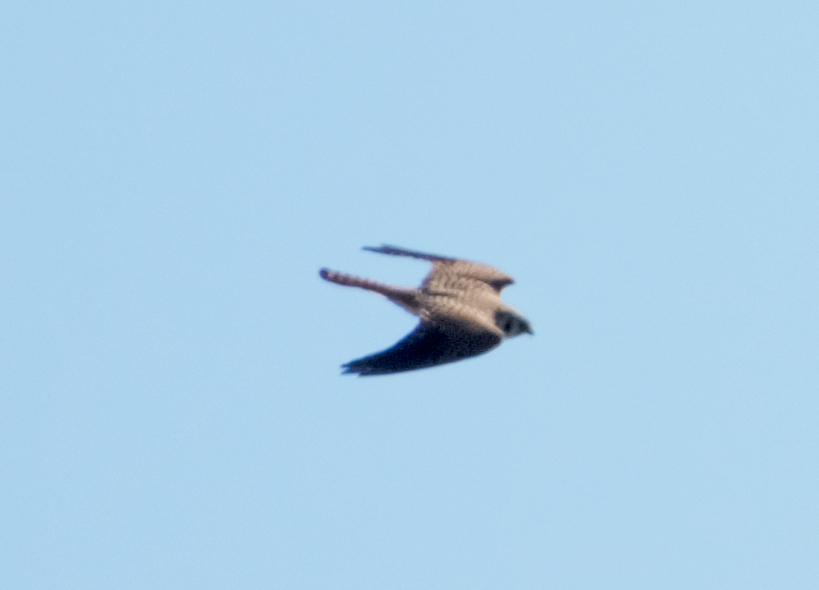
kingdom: Animalia
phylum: Chordata
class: Aves
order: Falconiformes
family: Falconidae
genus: Falco
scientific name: Falco sparverius
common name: American kestrel
